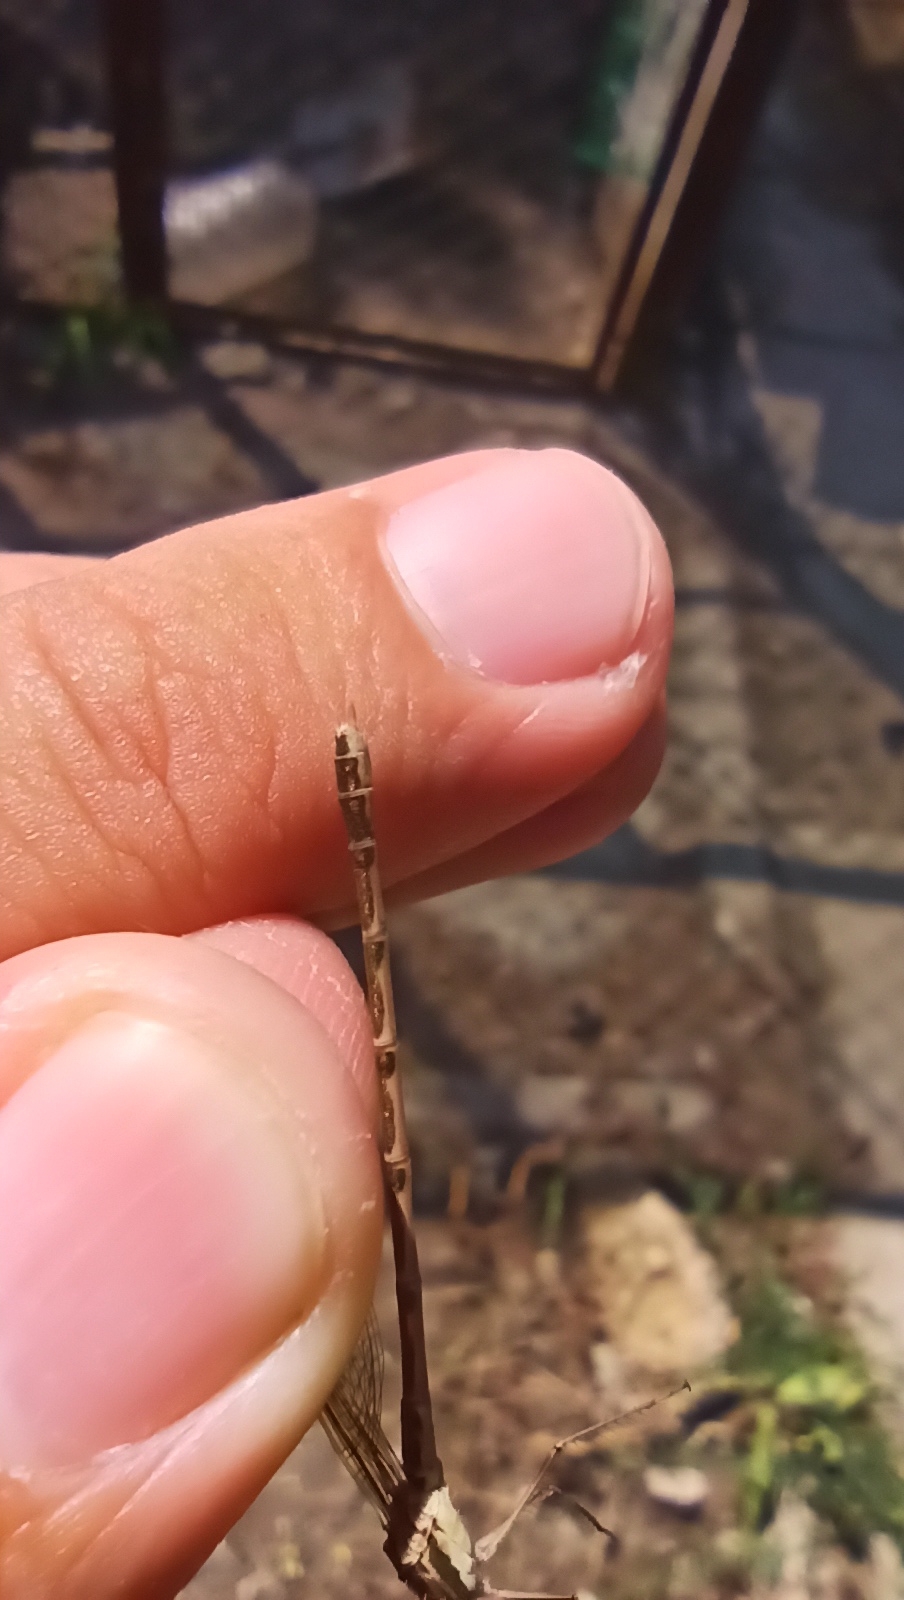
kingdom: Animalia
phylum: Arthropoda
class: Insecta
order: Odonata
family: Lestidae
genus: Sympecma
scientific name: Sympecma fusca
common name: Common winter damsel
